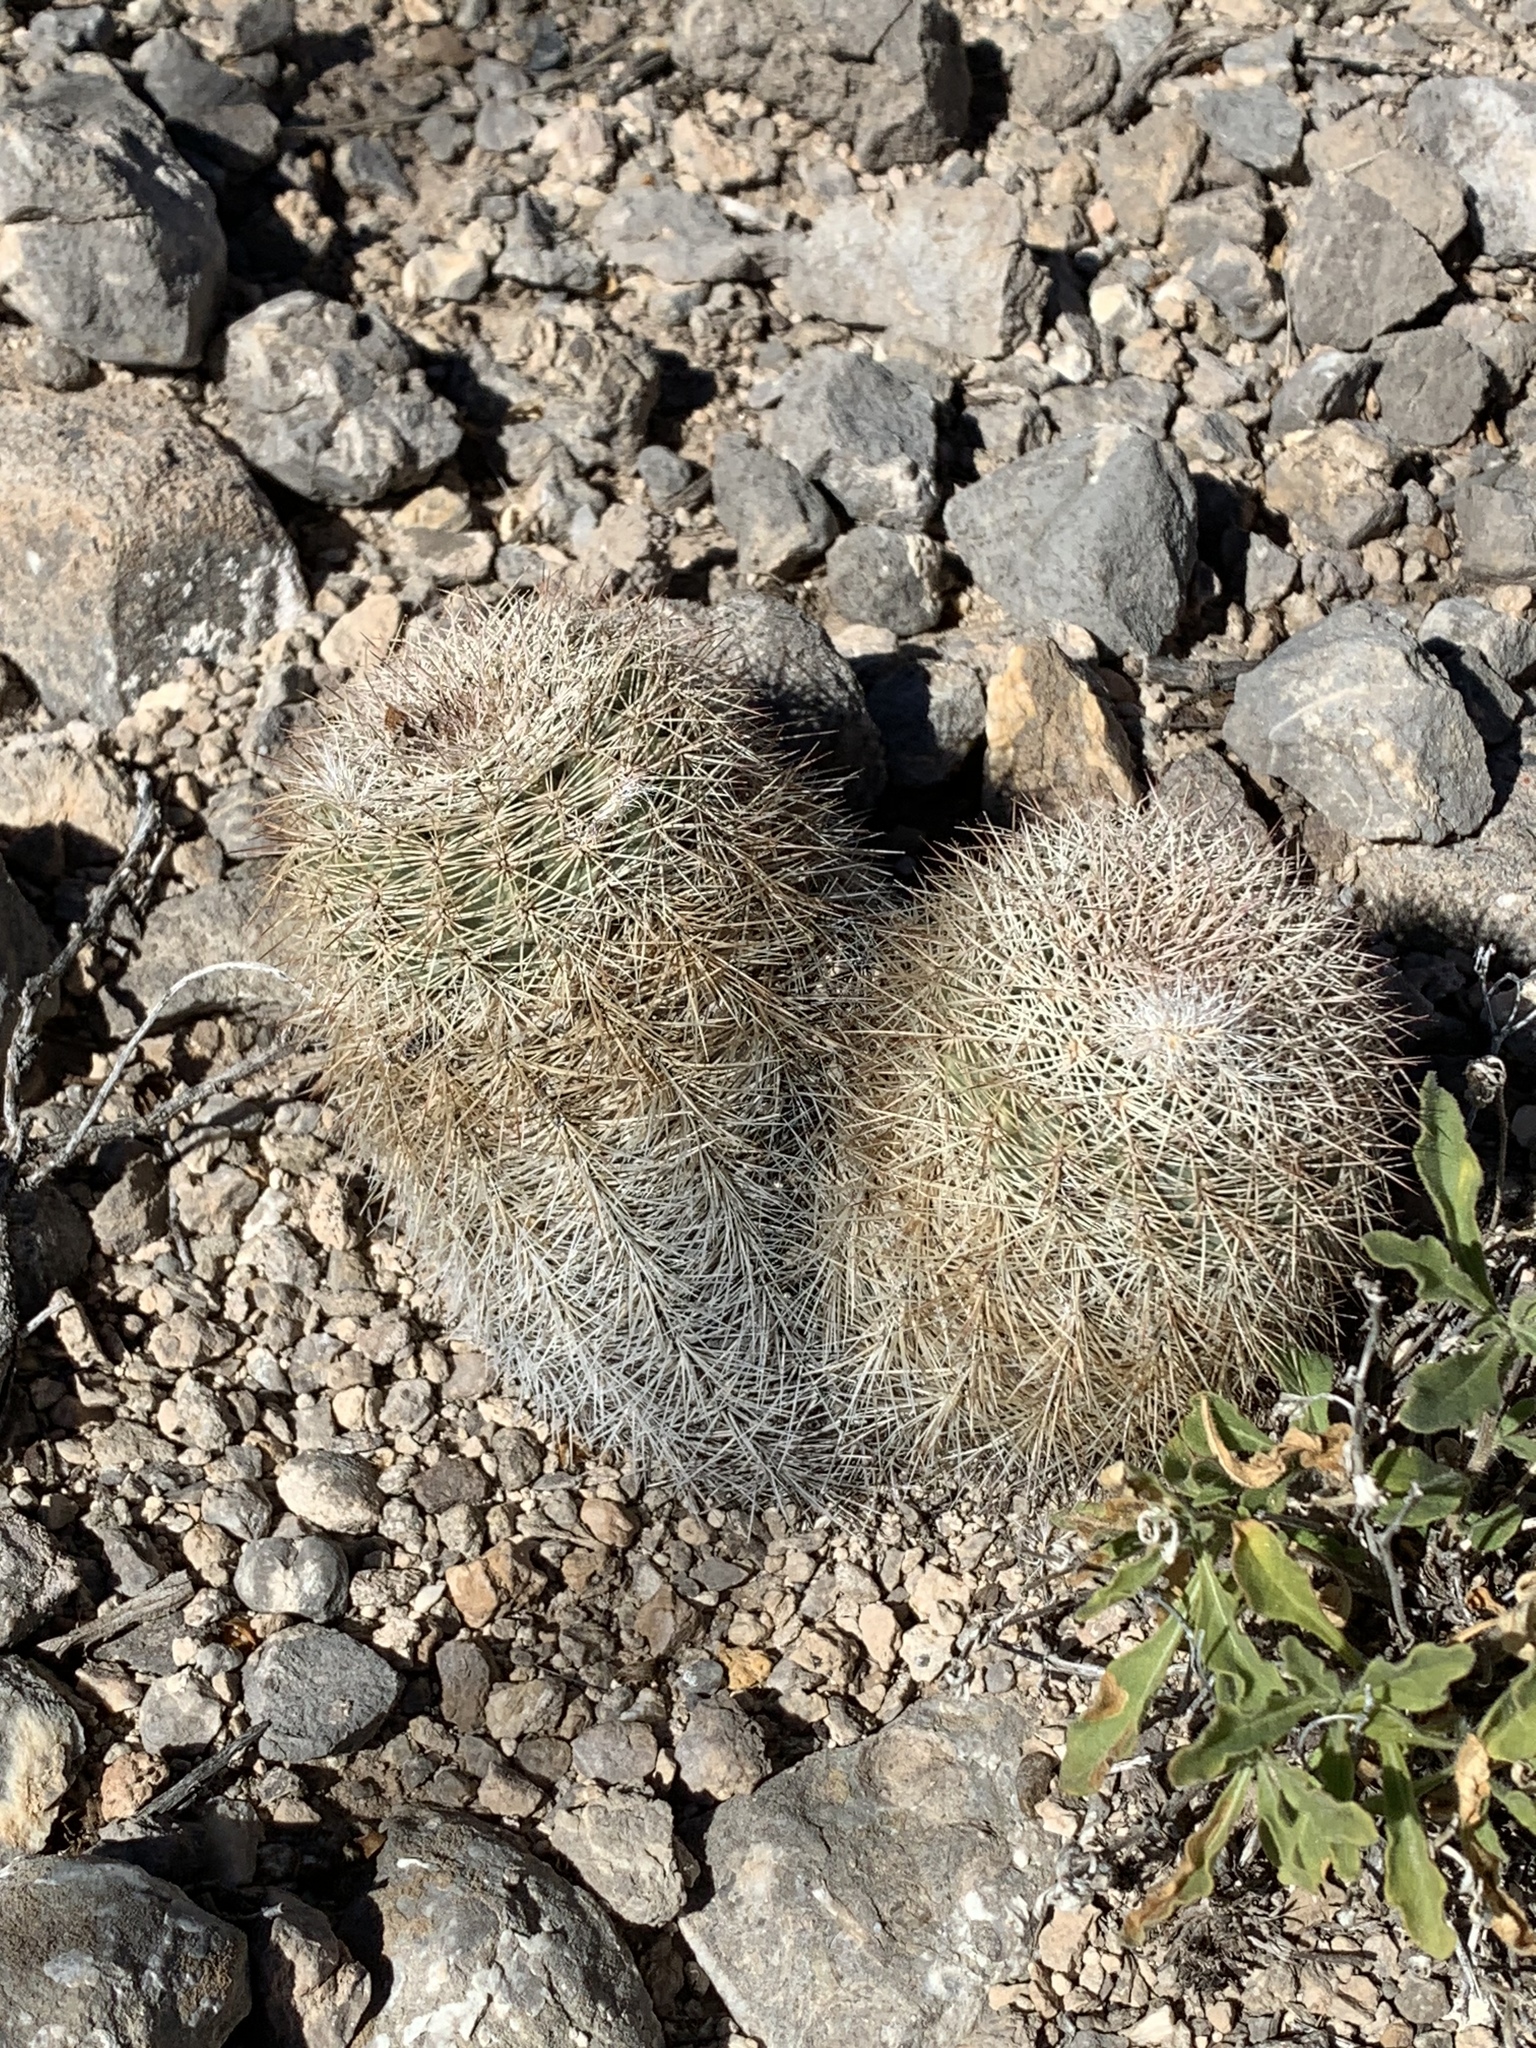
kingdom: Plantae
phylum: Tracheophyta
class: Magnoliopsida
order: Caryophyllales
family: Cactaceae
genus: Echinocereus
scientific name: Echinocereus dasyacanthus
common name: Spiny hedgehog cactus
